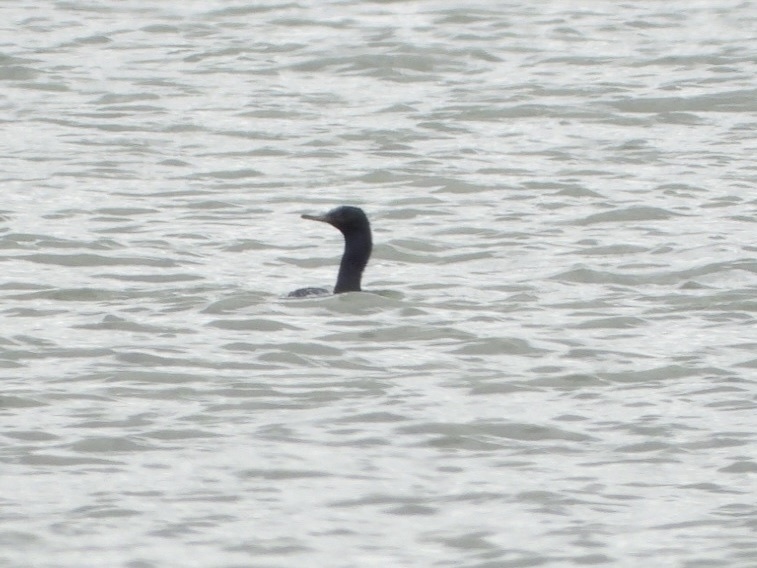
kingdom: Animalia
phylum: Chordata
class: Aves
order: Suliformes
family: Phalacrocoracidae
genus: Phalacrocorax
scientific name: Phalacrocorax pelagicus
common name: Pelagic cormorant
